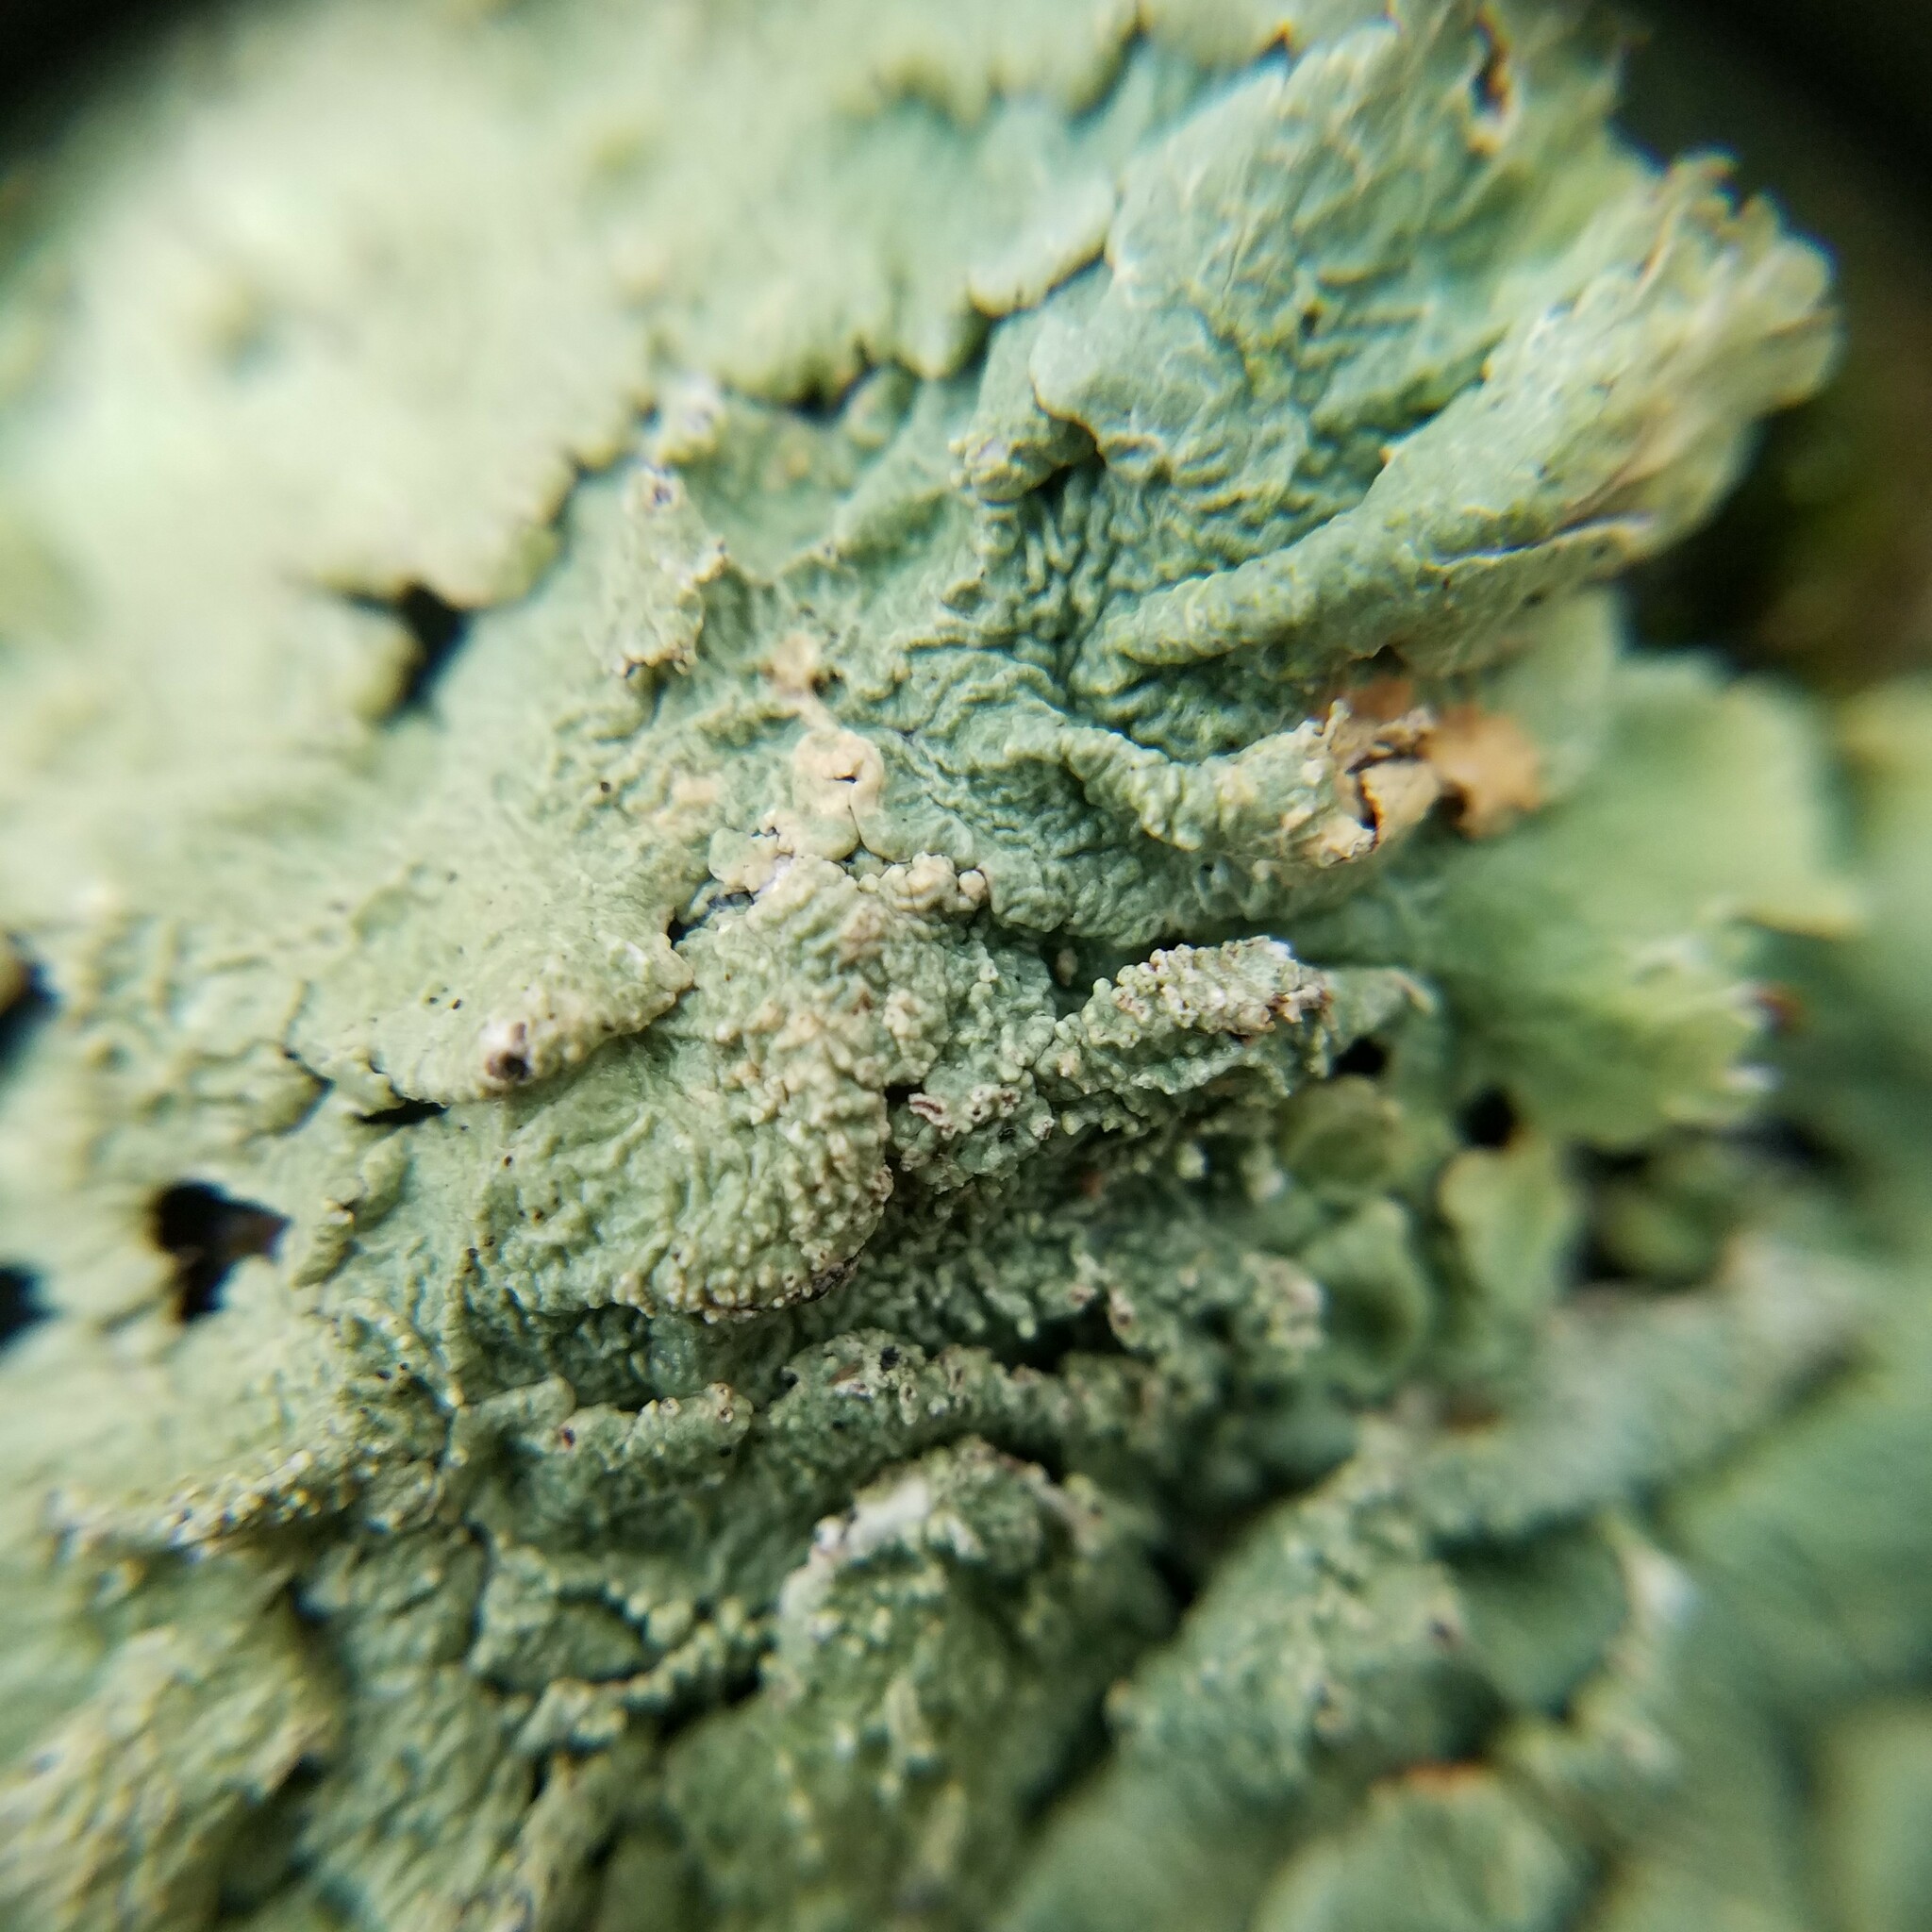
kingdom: Fungi
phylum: Ascomycota
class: Lecanoromycetes
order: Lecanorales
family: Parmeliaceae
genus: Flavoparmelia
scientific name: Flavoparmelia baltimorensis
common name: Rock greenshield
